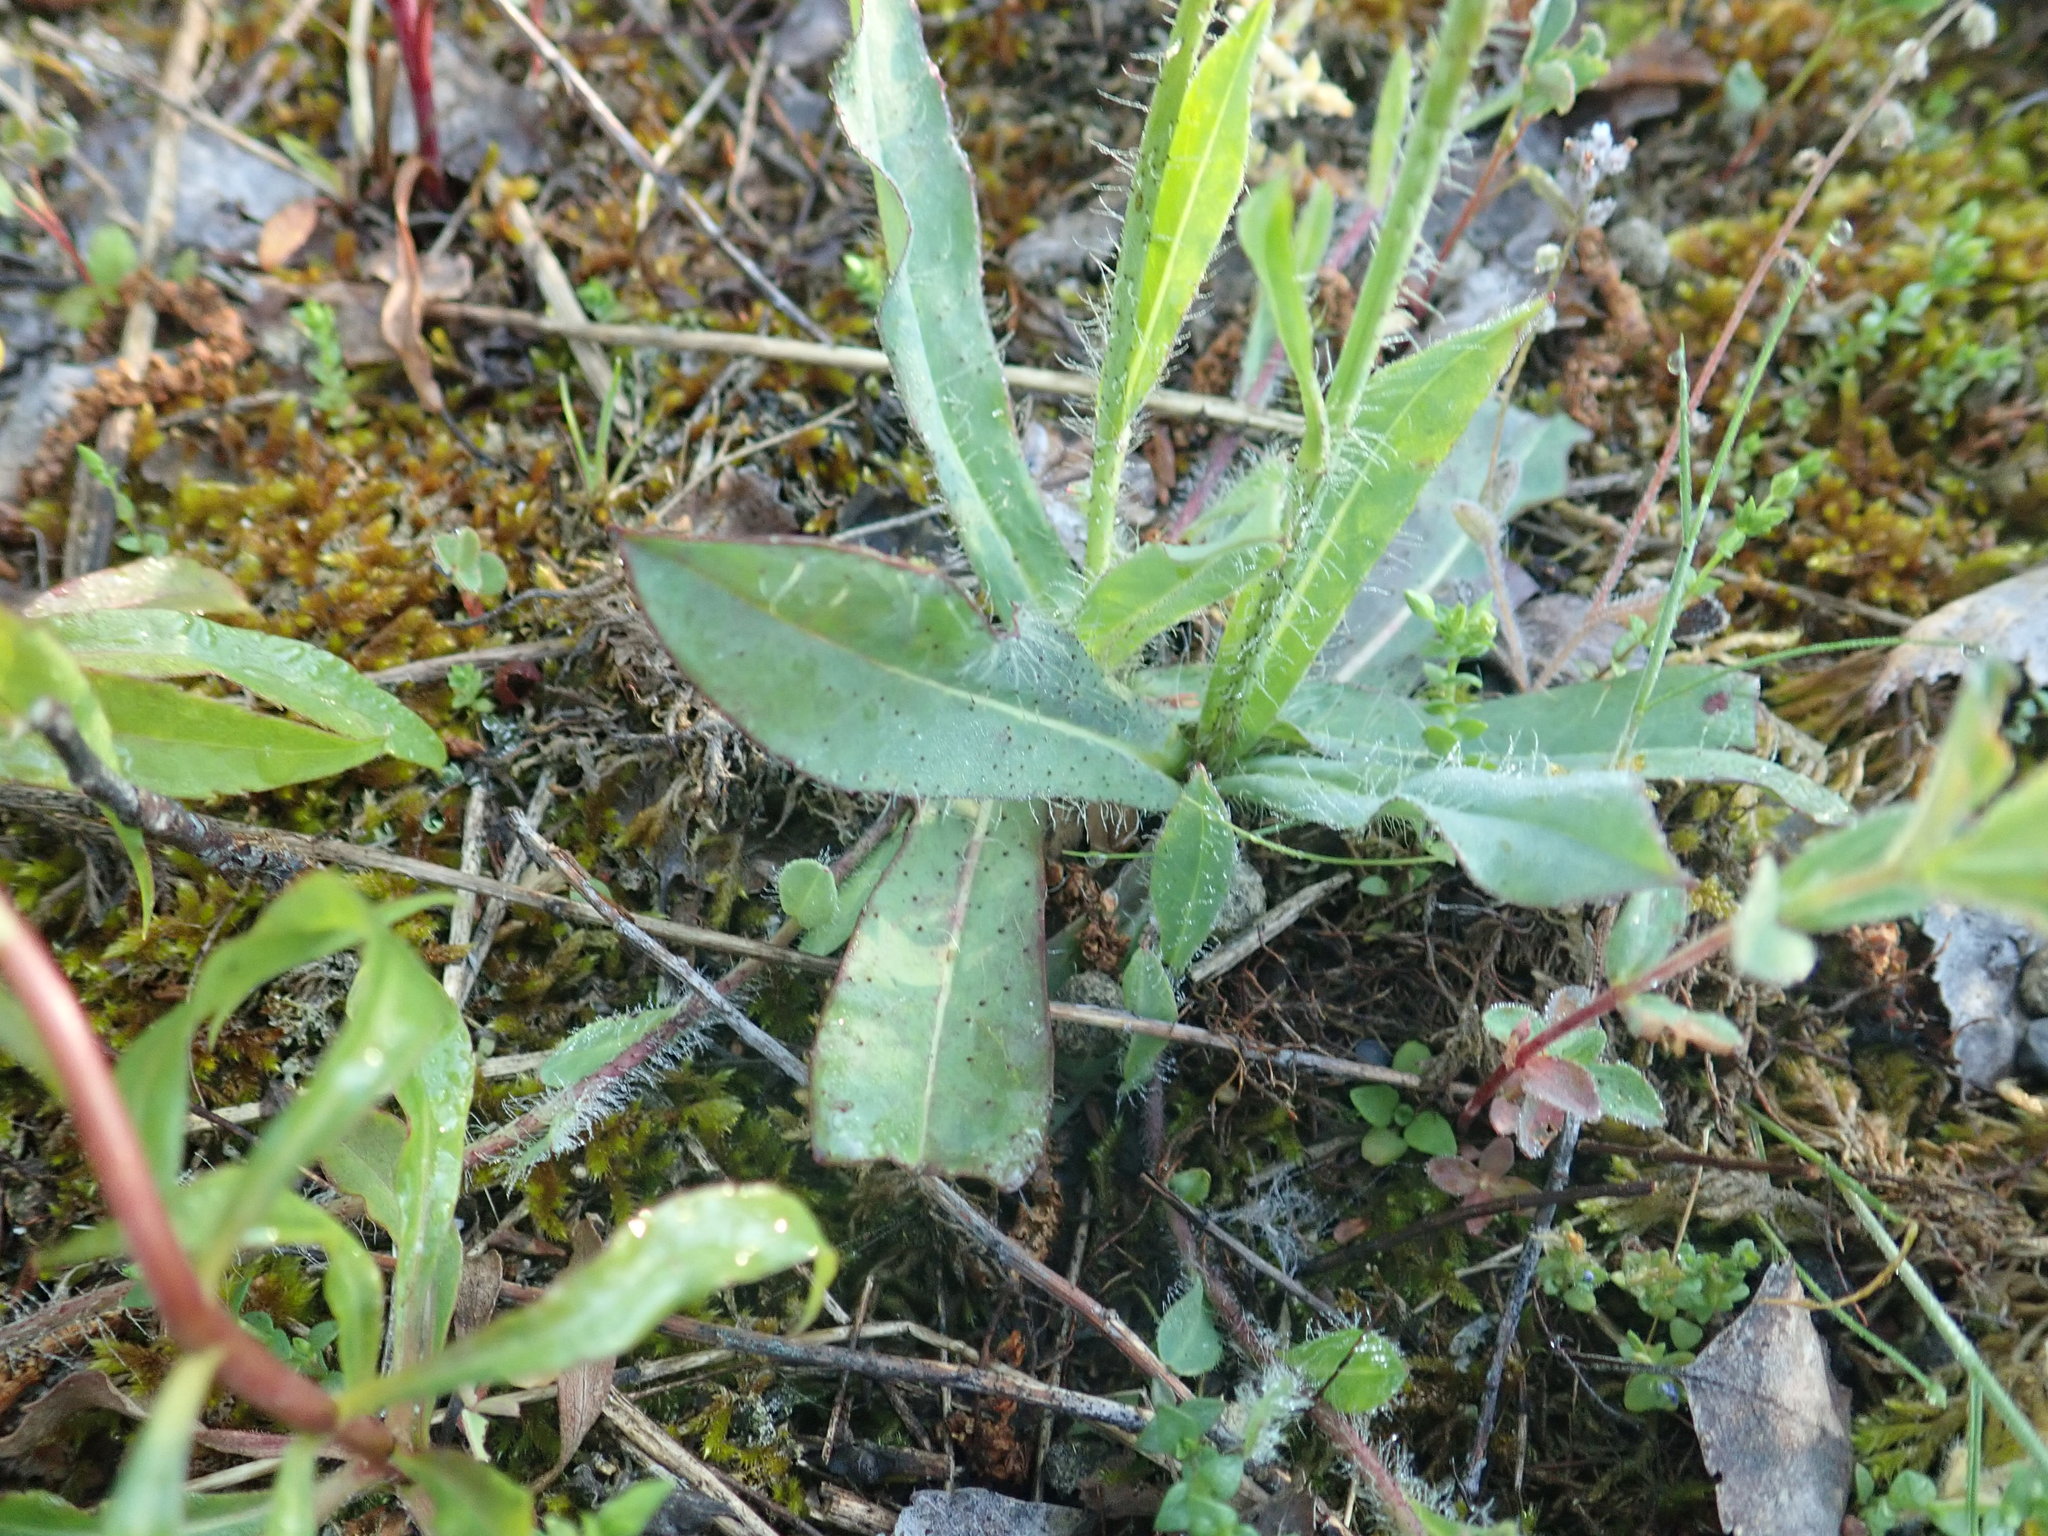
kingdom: Plantae
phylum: Tracheophyta
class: Magnoliopsida
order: Asterales
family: Asteraceae
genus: Pilosella
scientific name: Pilosella bauhini
